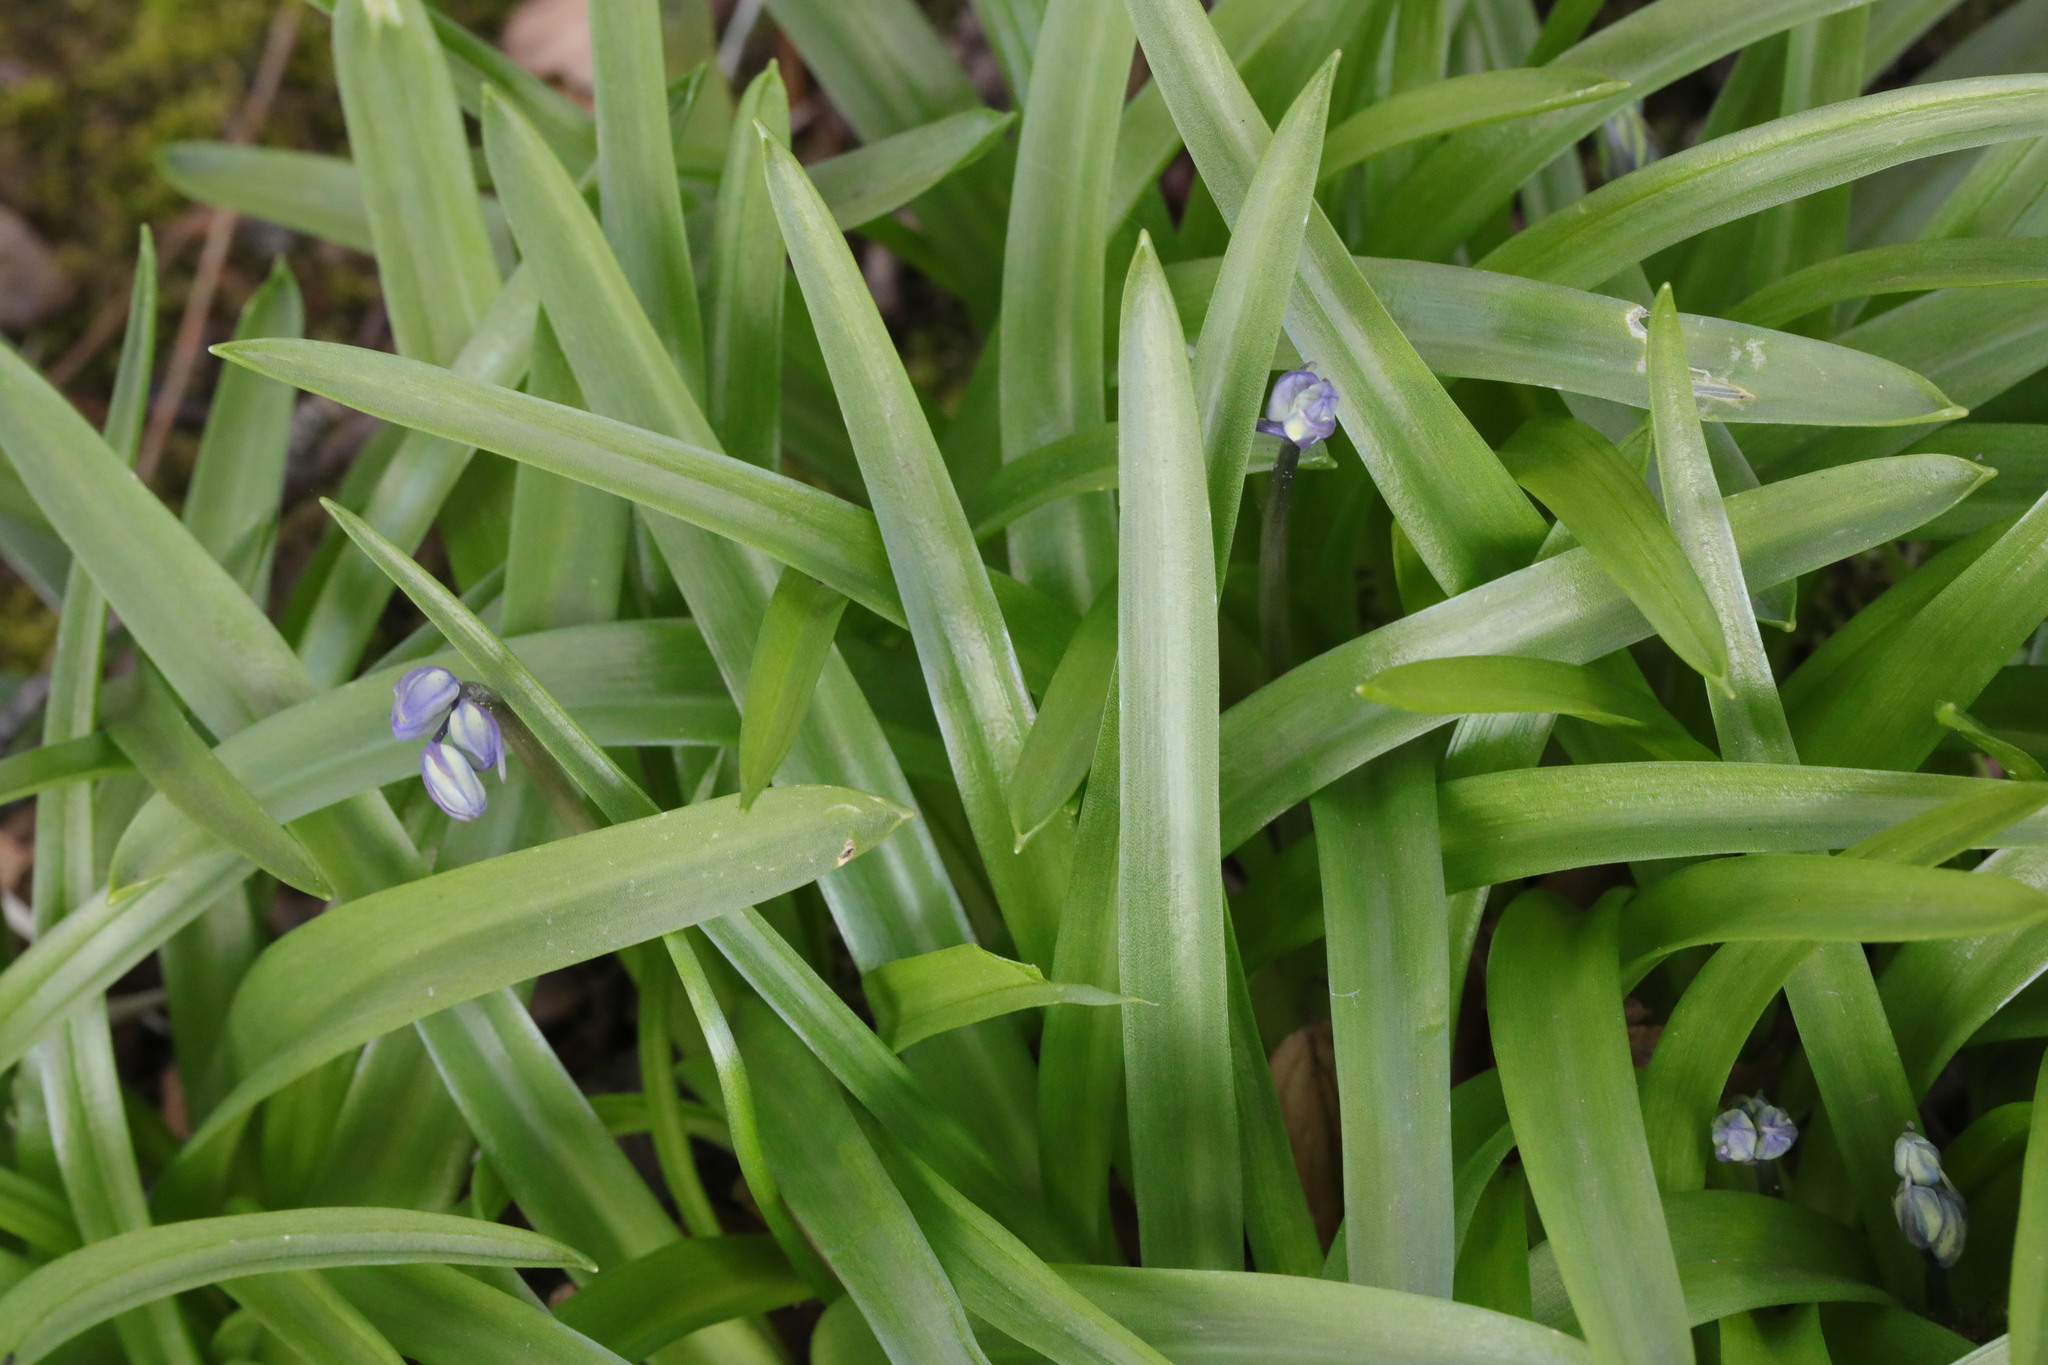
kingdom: Plantae
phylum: Tracheophyta
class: Liliopsida
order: Asparagales
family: Asparagaceae
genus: Hyacinthoides
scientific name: Hyacinthoides massartiana
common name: Hyacinthoides
